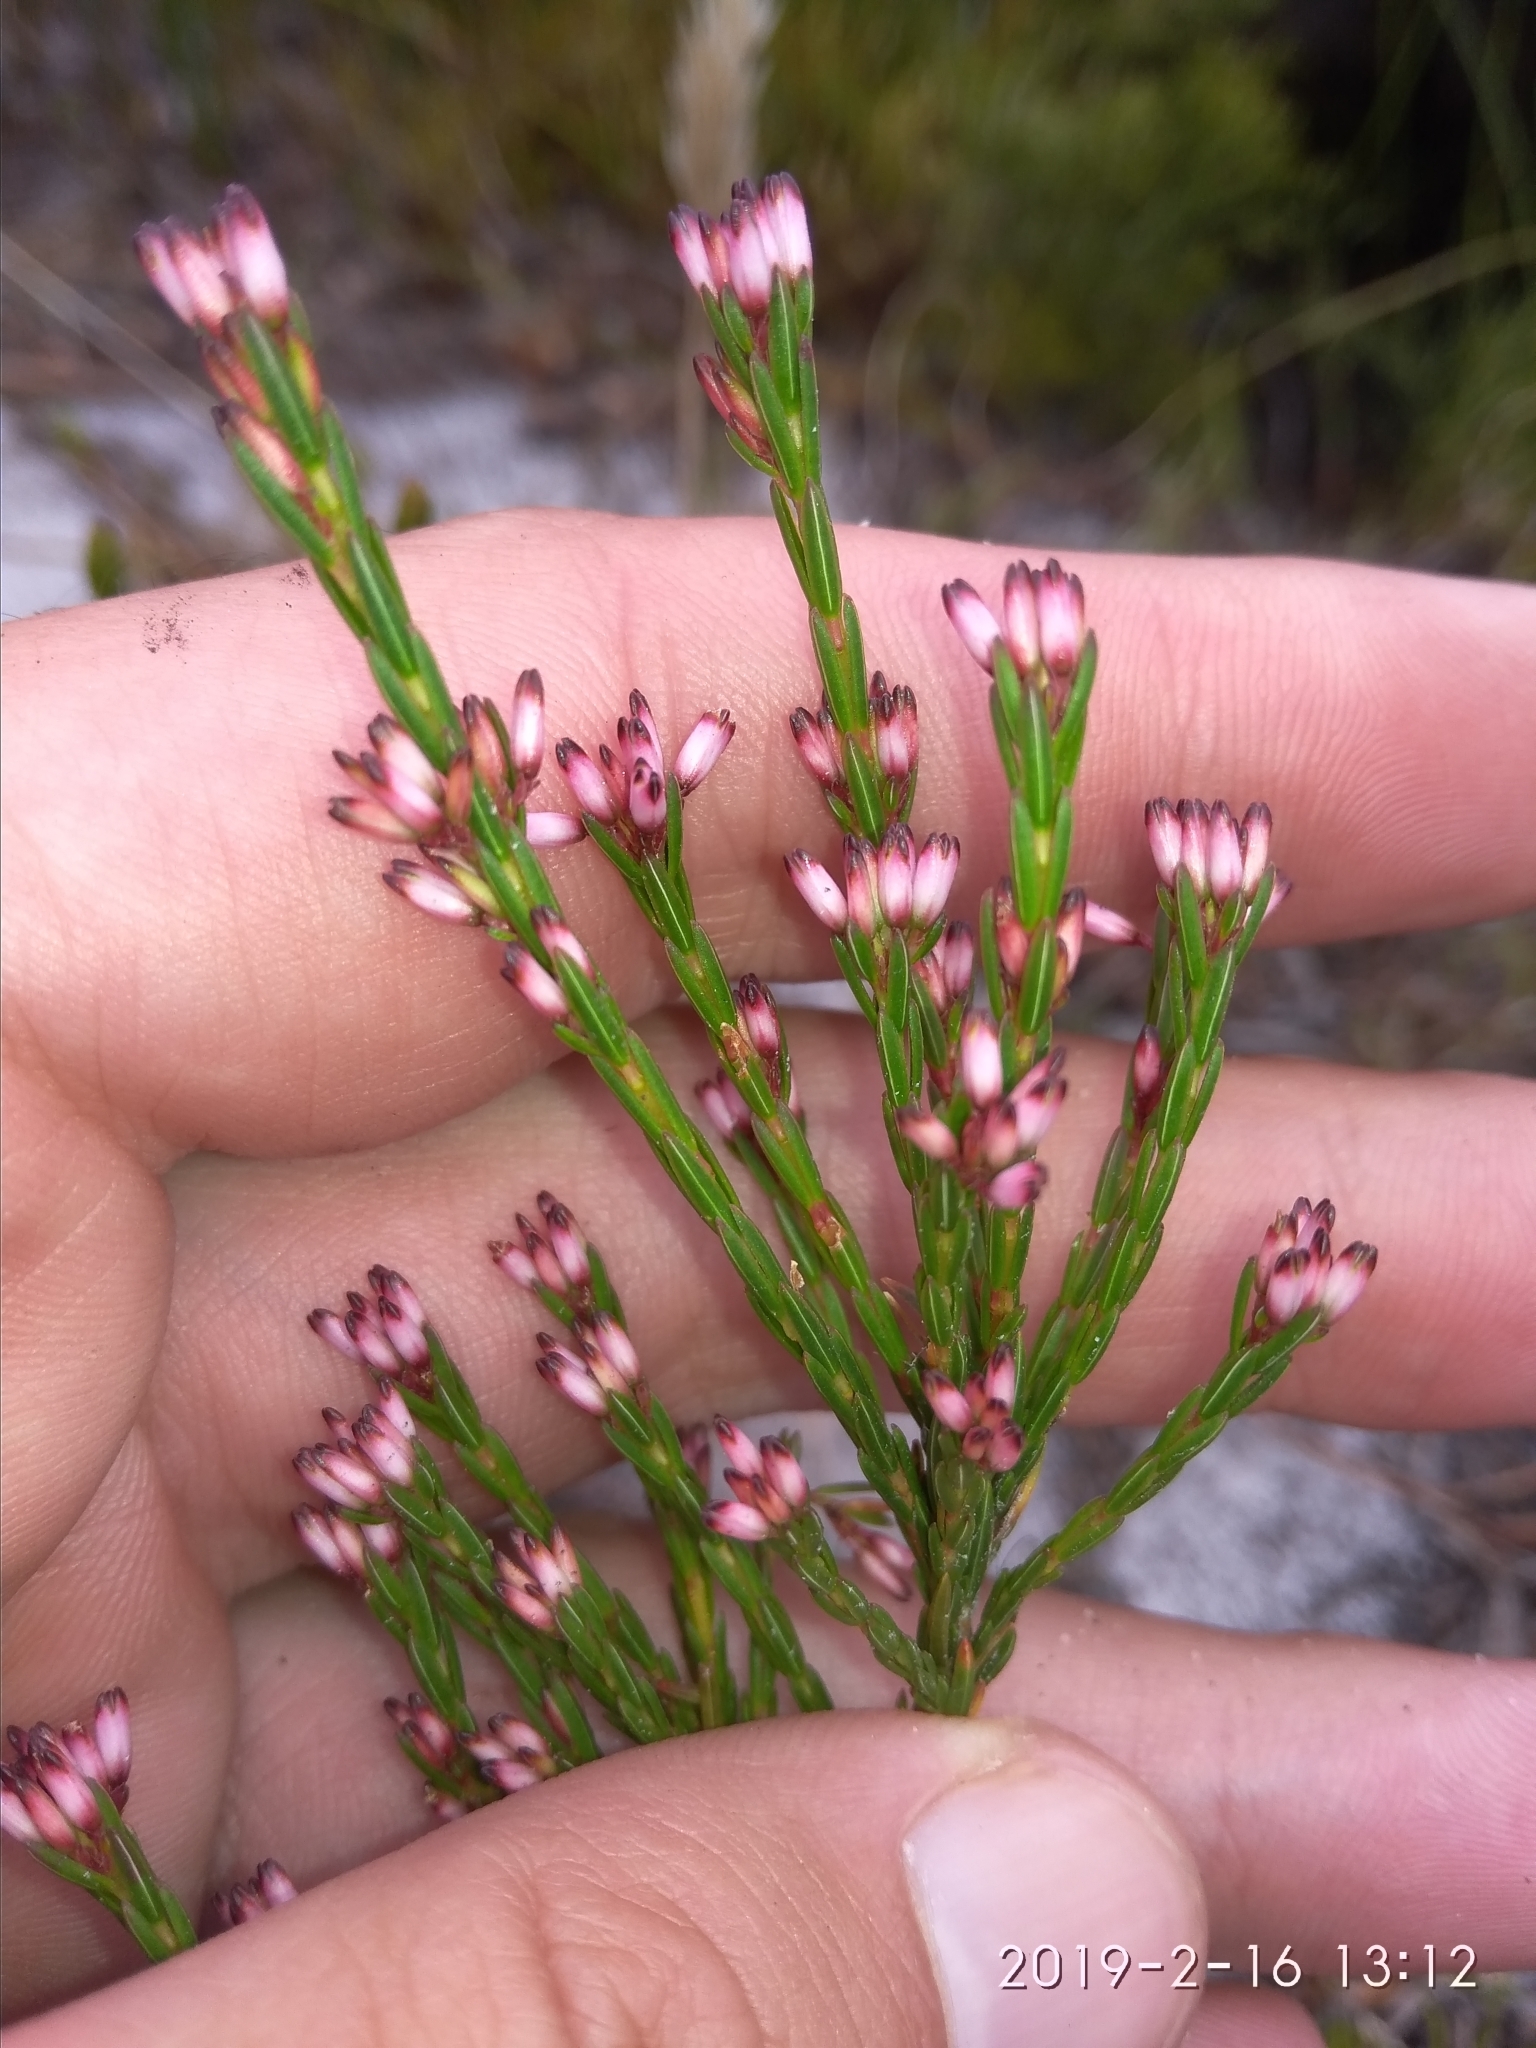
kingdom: Plantae
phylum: Tracheophyta
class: Magnoliopsida
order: Ericales
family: Ericaceae
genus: Erica
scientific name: Erica corifolia
